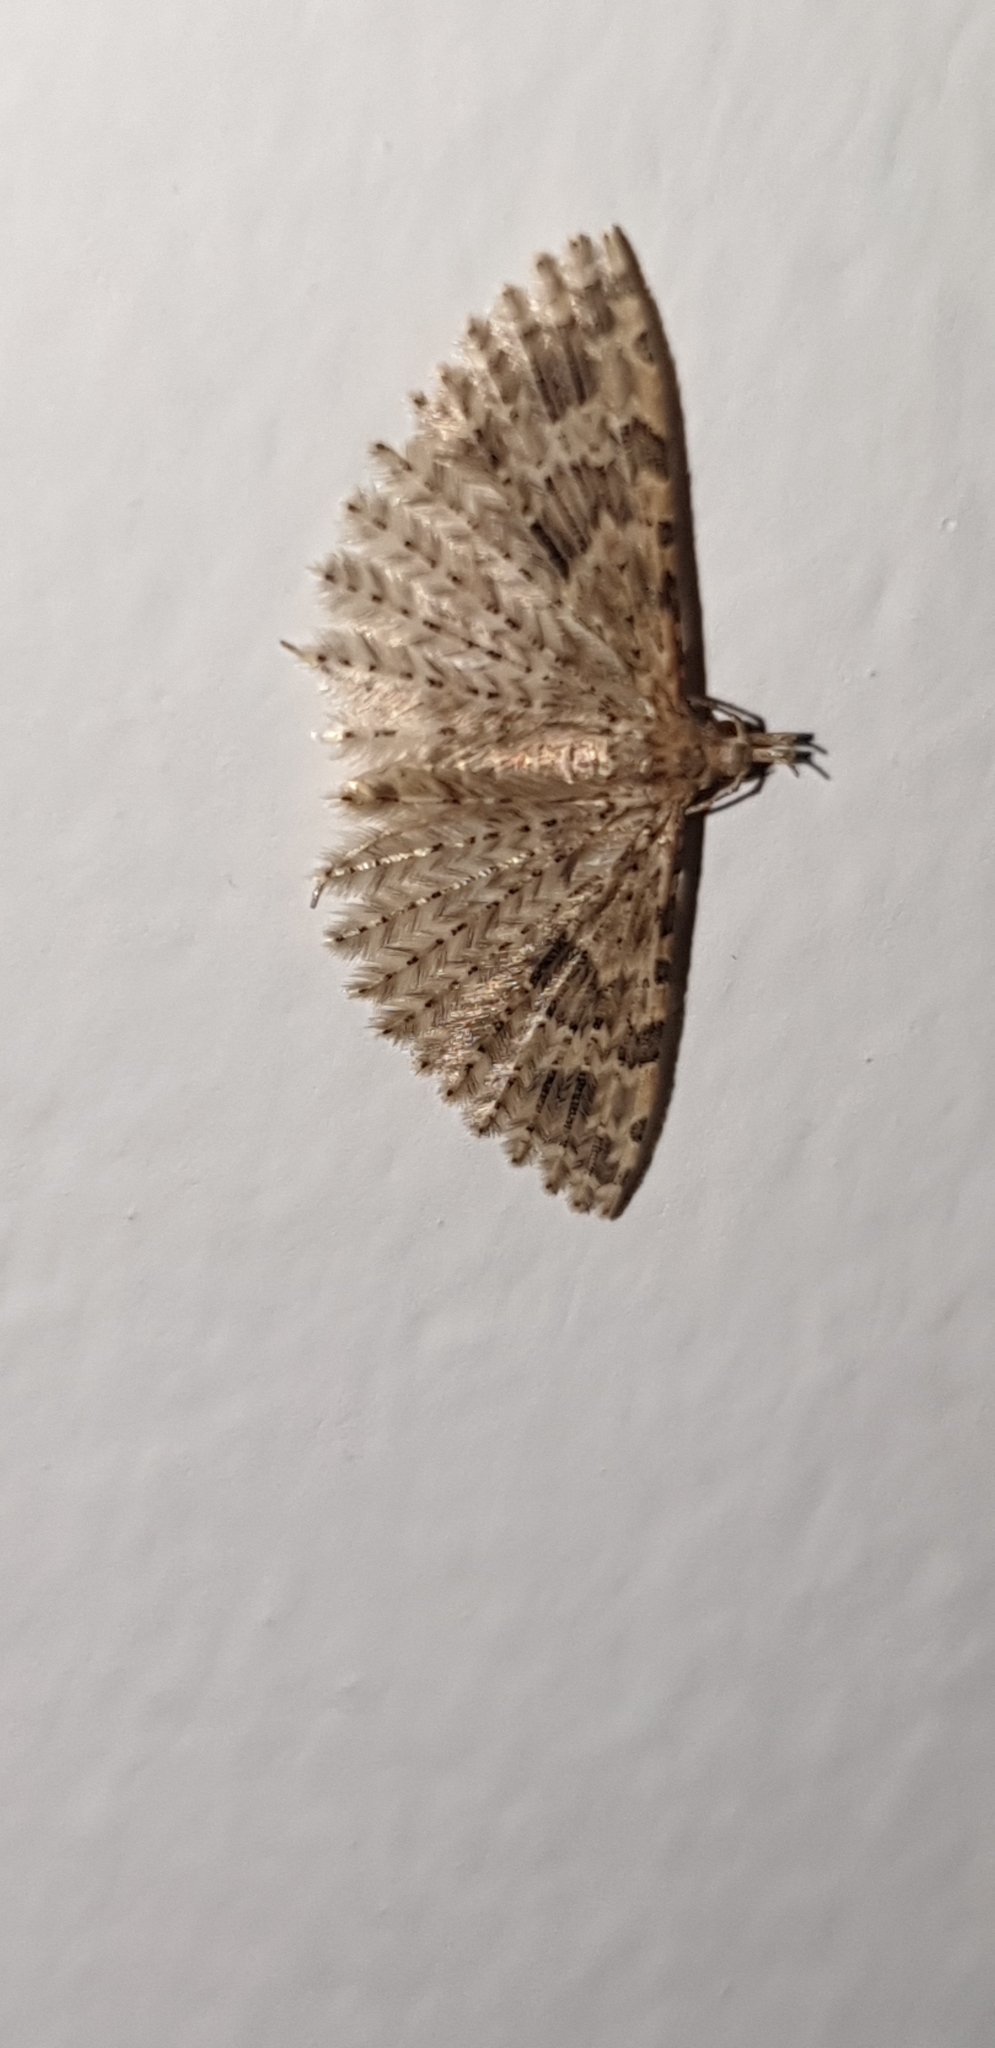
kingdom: Animalia
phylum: Arthropoda
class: Insecta
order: Lepidoptera
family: Alucitidae
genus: Alucita
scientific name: Alucita hexadactyla
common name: Twenty-plume moth
